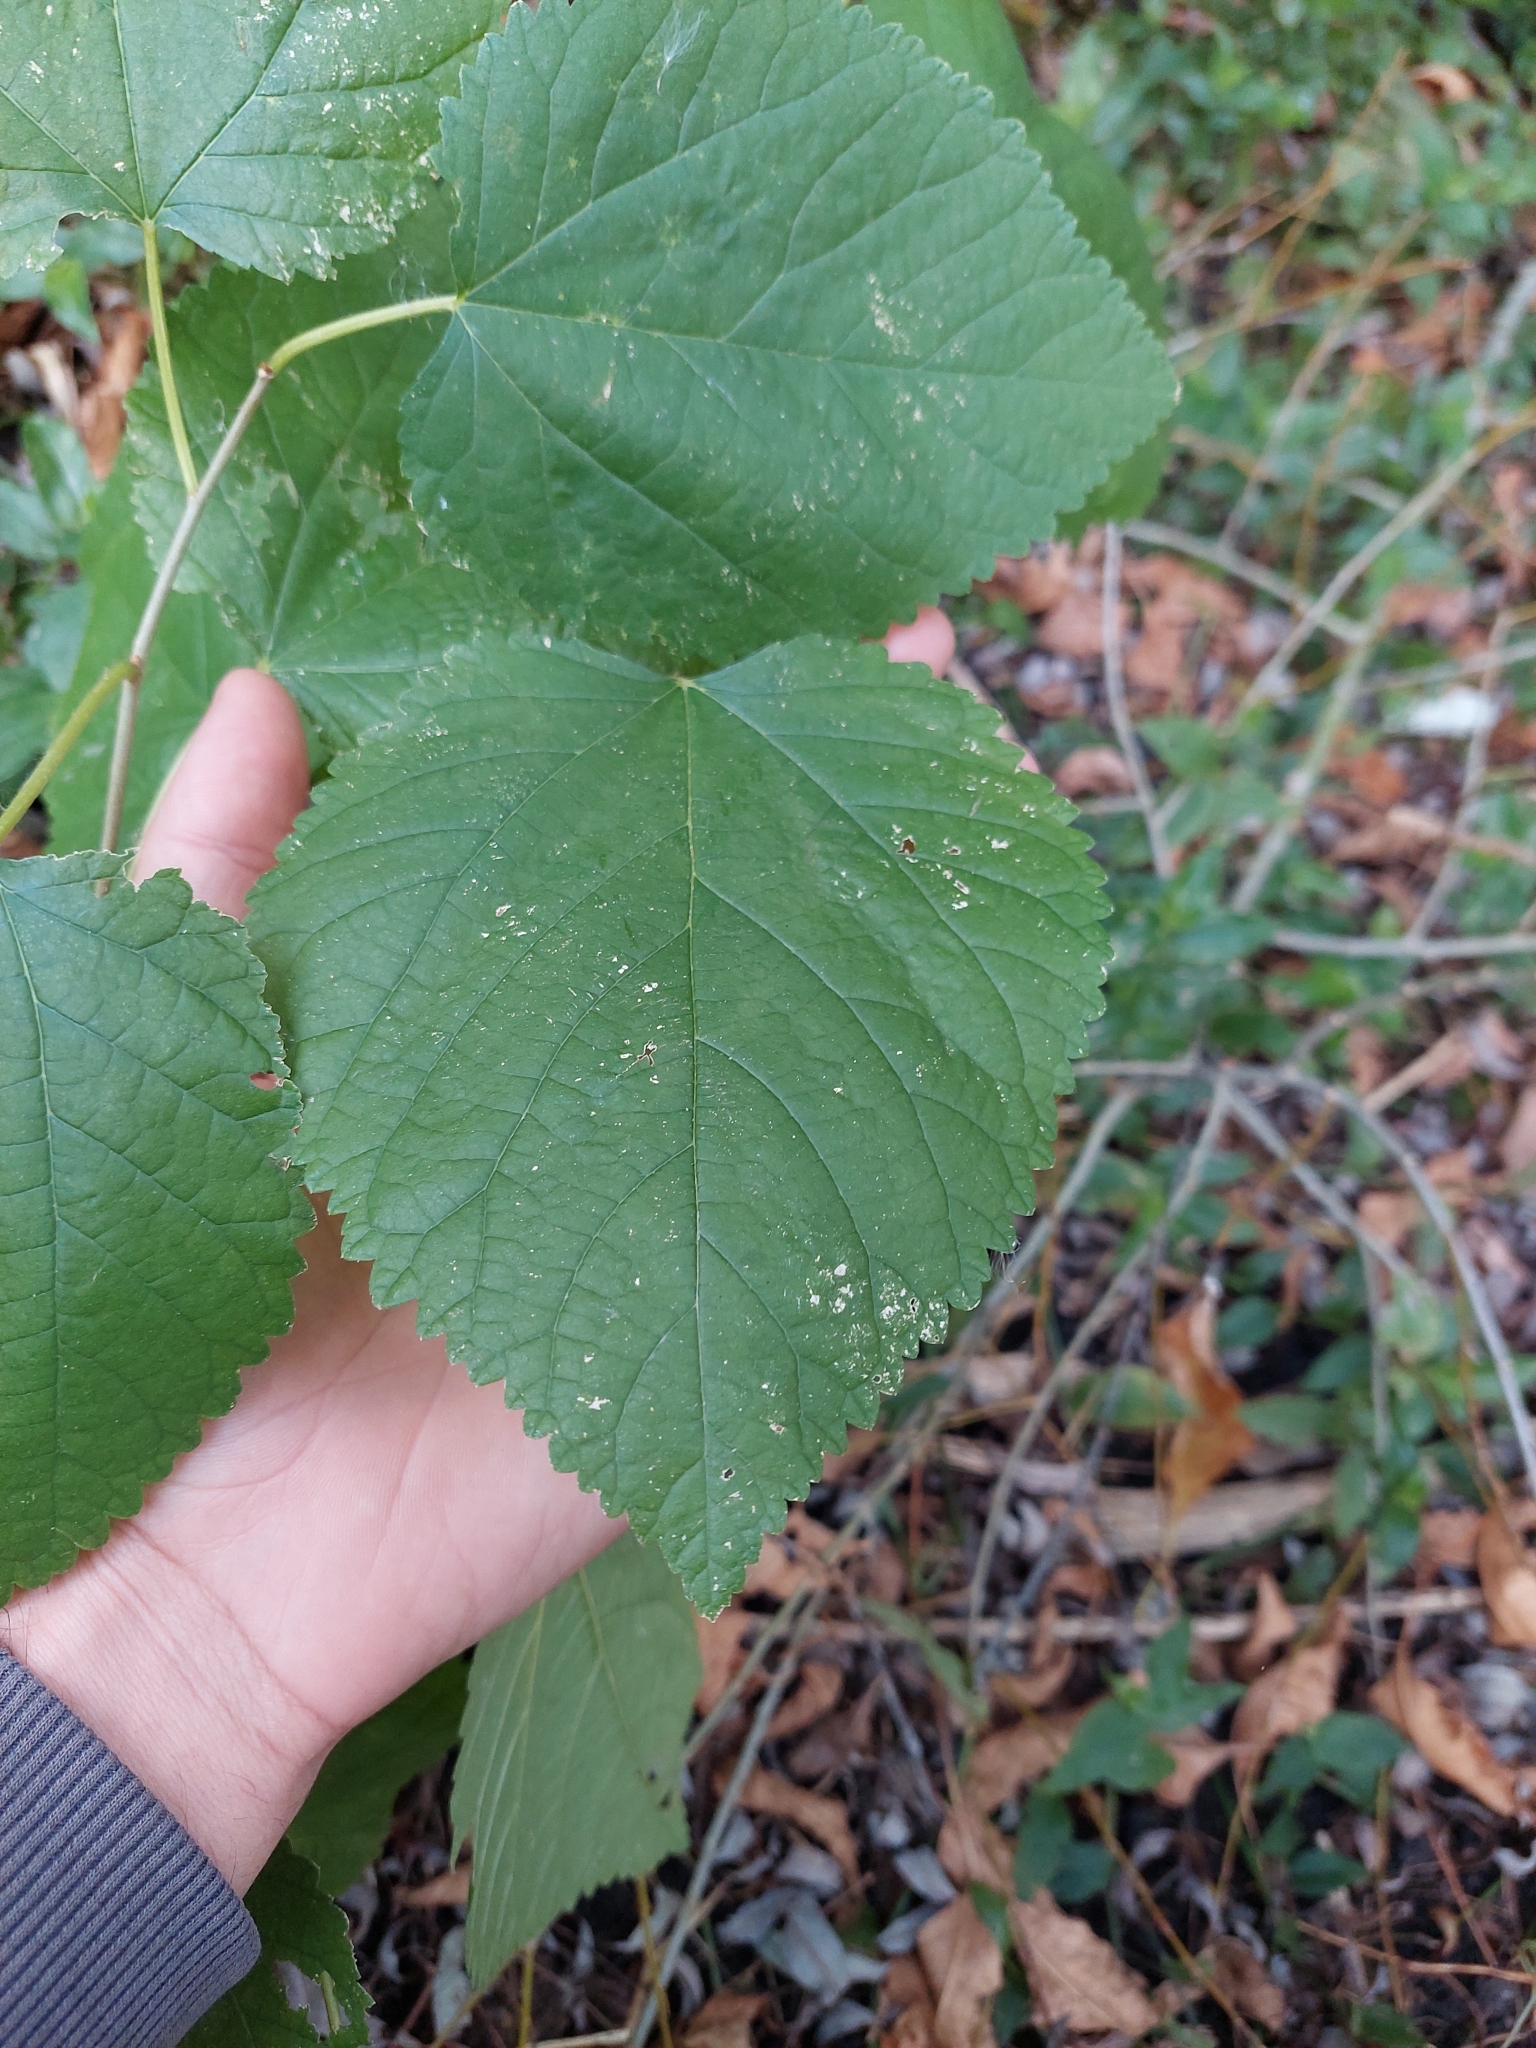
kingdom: Plantae
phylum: Tracheophyta
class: Magnoliopsida
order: Rosales
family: Moraceae
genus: Morus
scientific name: Morus indica
